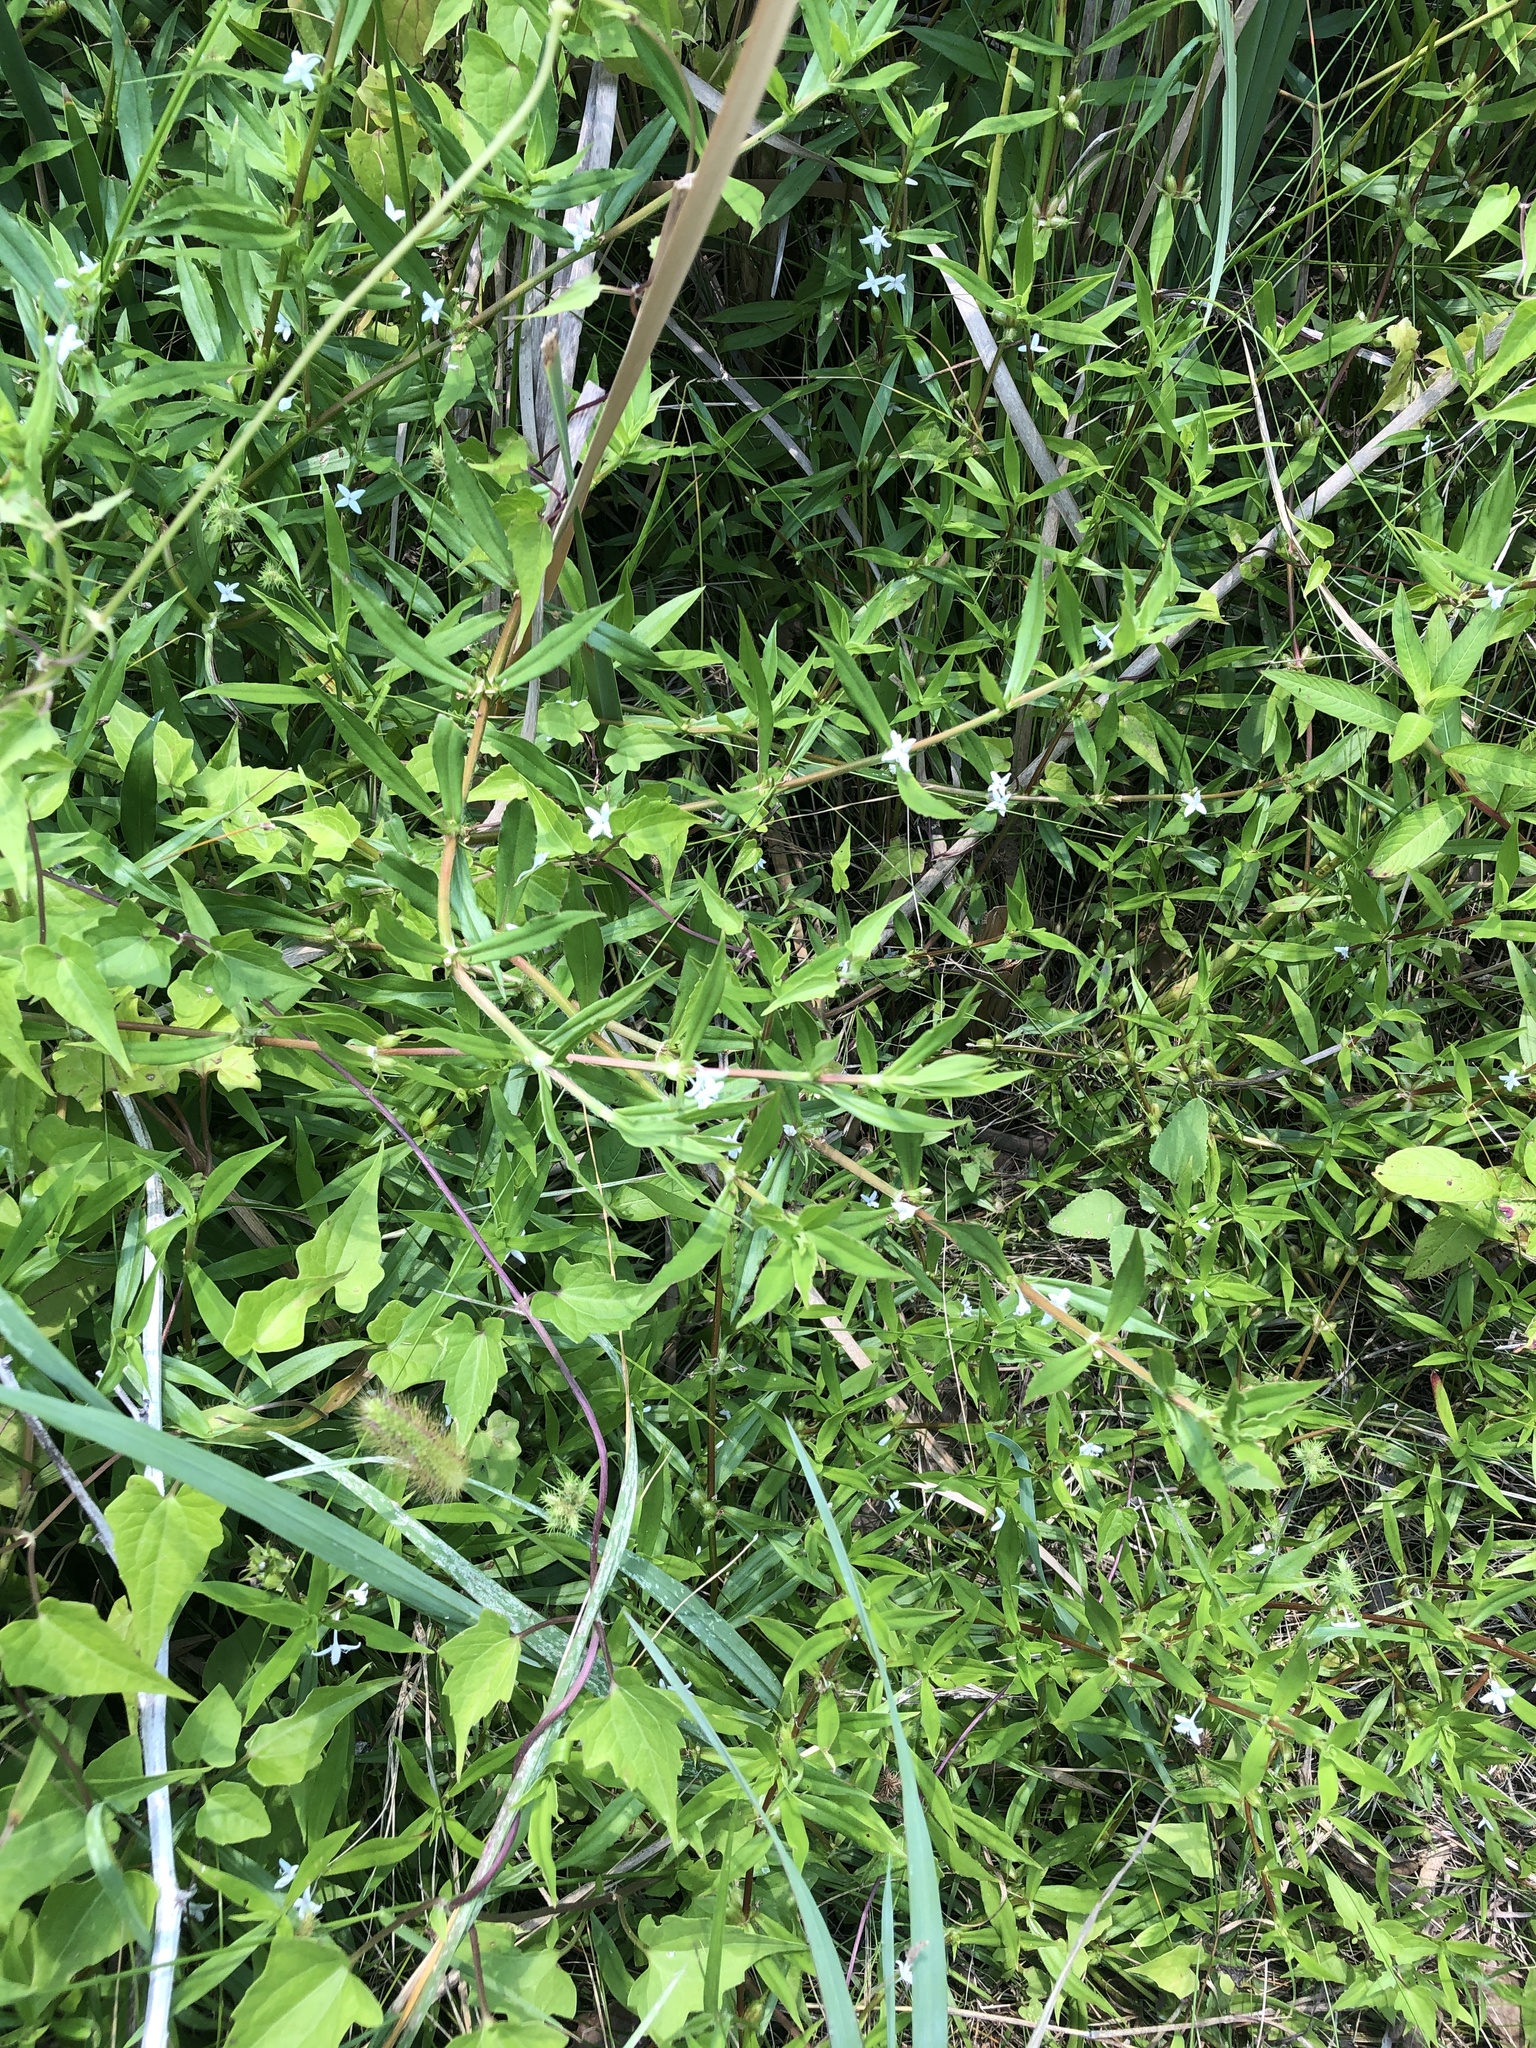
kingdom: Plantae
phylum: Tracheophyta
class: Magnoliopsida
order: Gentianales
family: Rubiaceae
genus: Diodia
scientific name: Diodia virginiana
